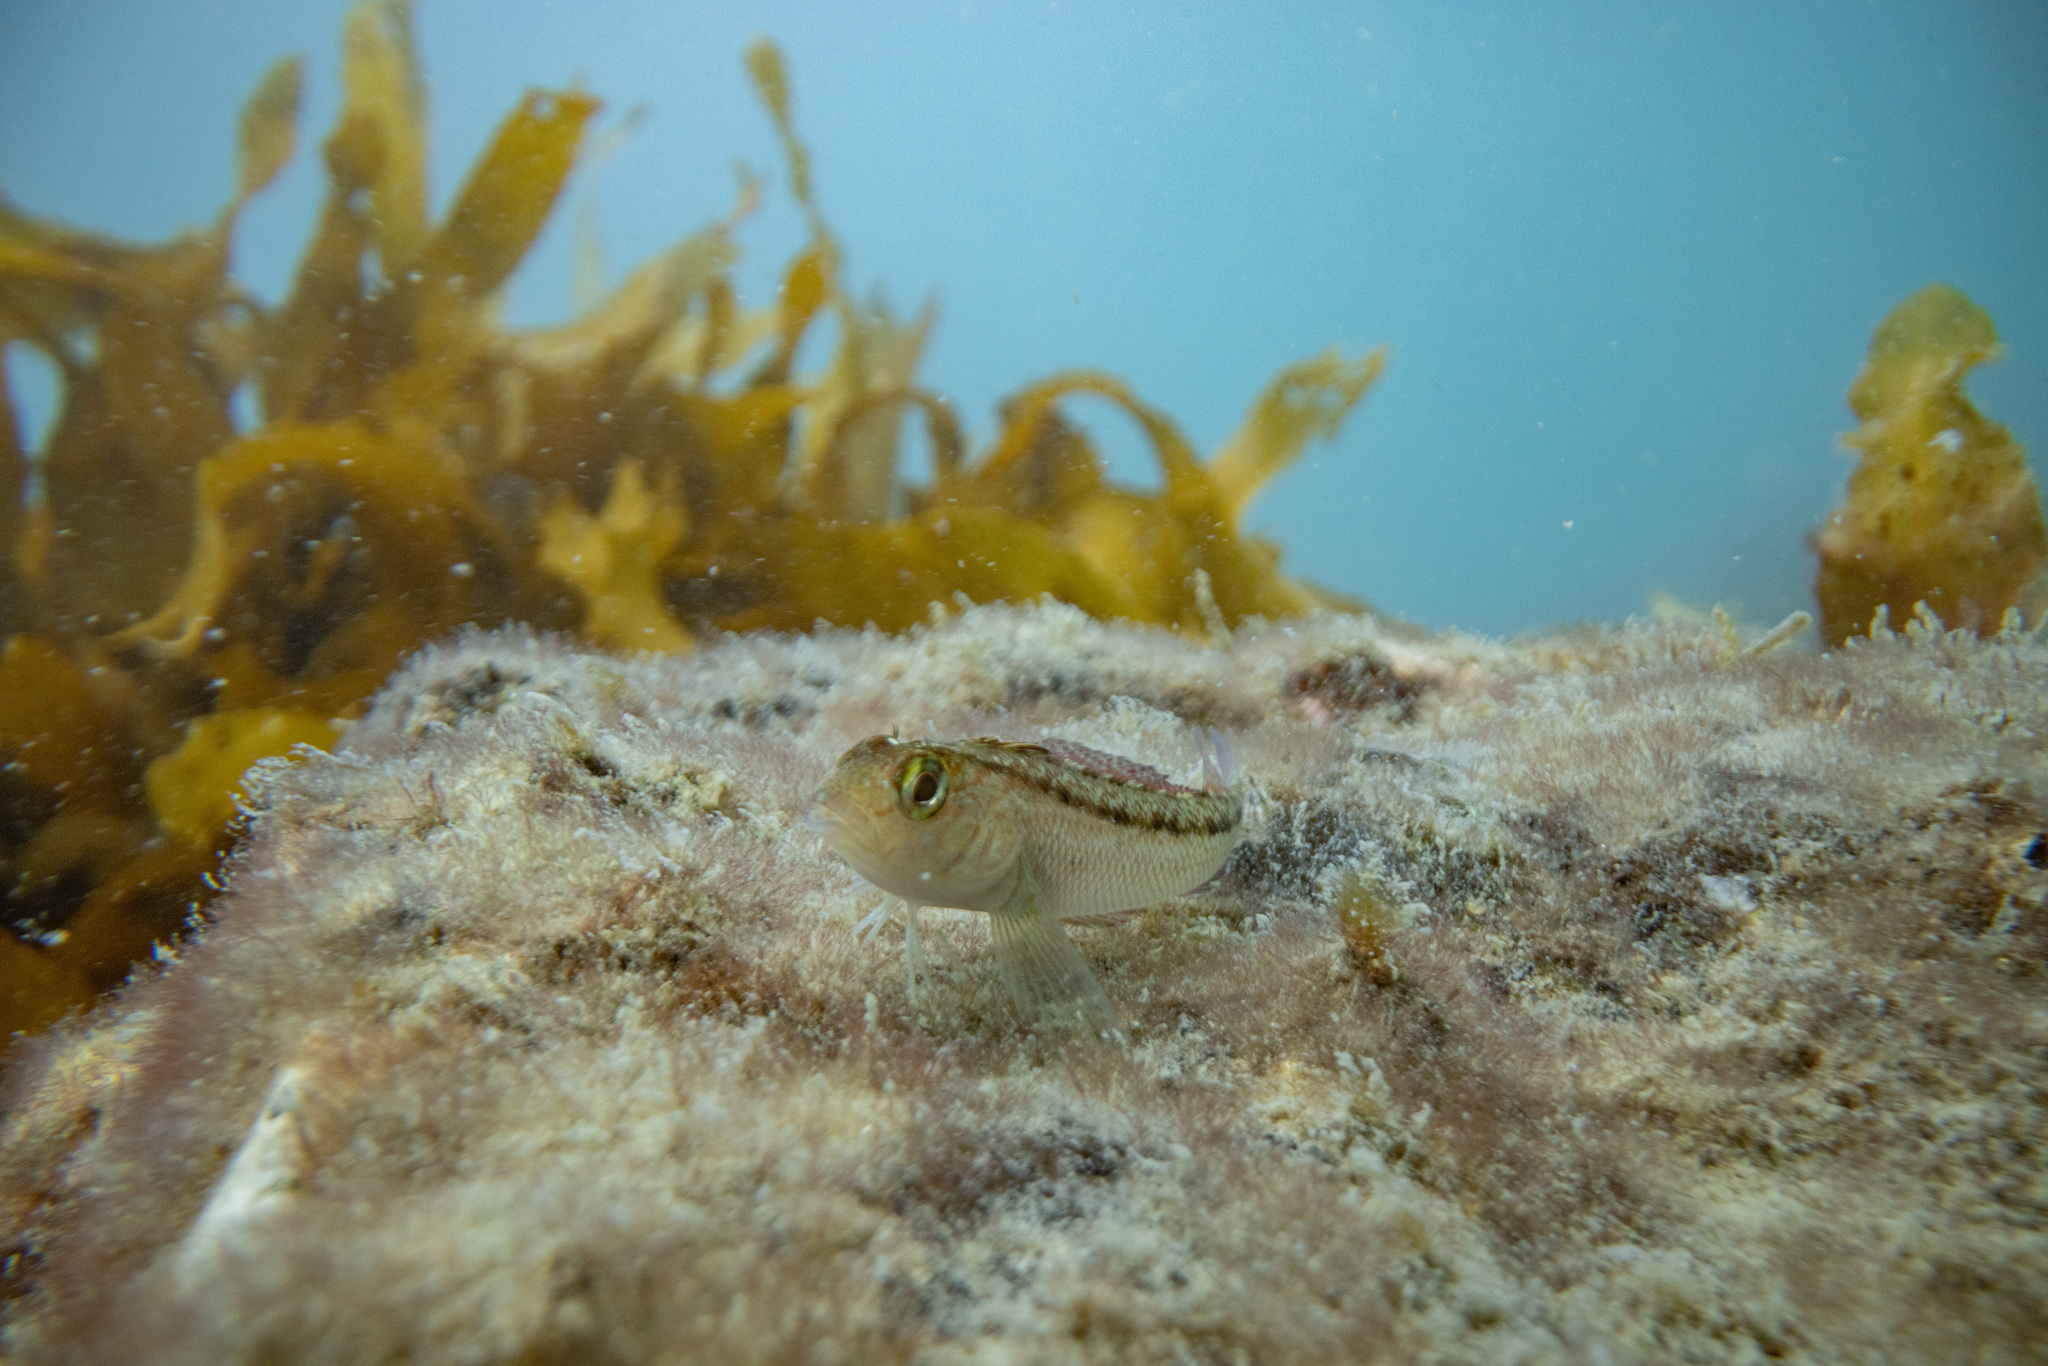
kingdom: Animalia
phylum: Chordata
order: Perciformes
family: Tripterygiidae
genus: Forsterygion
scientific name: Forsterygion lapillum
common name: Common triplefin
